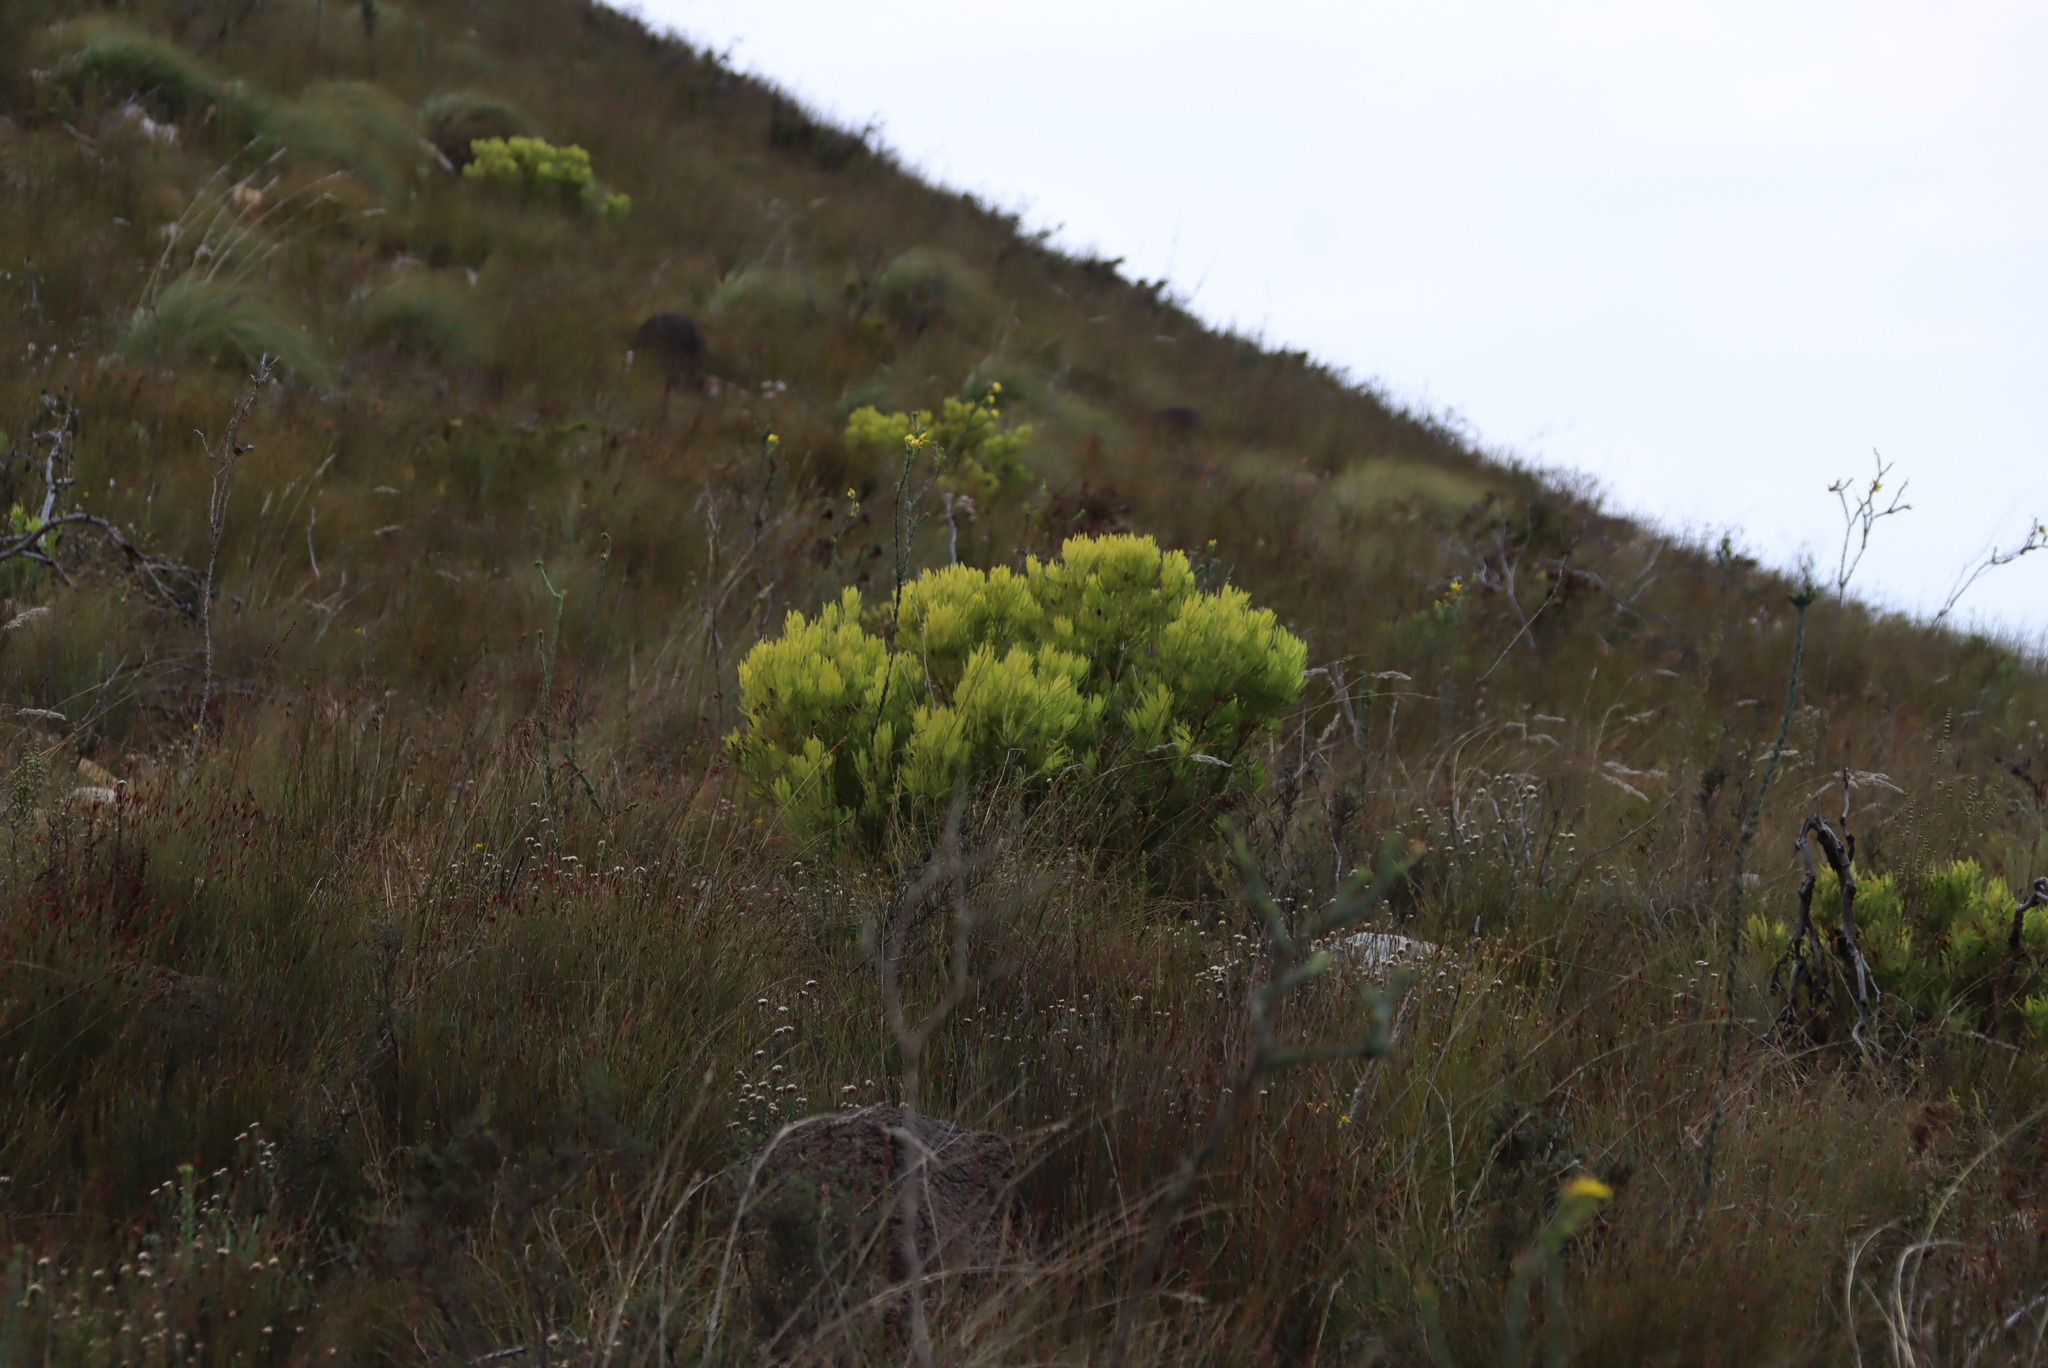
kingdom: Plantae
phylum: Tracheophyta
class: Magnoliopsida
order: Proteales
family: Proteaceae
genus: Leucadendron
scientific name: Leucadendron salignum
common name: Common sunshine conebush
